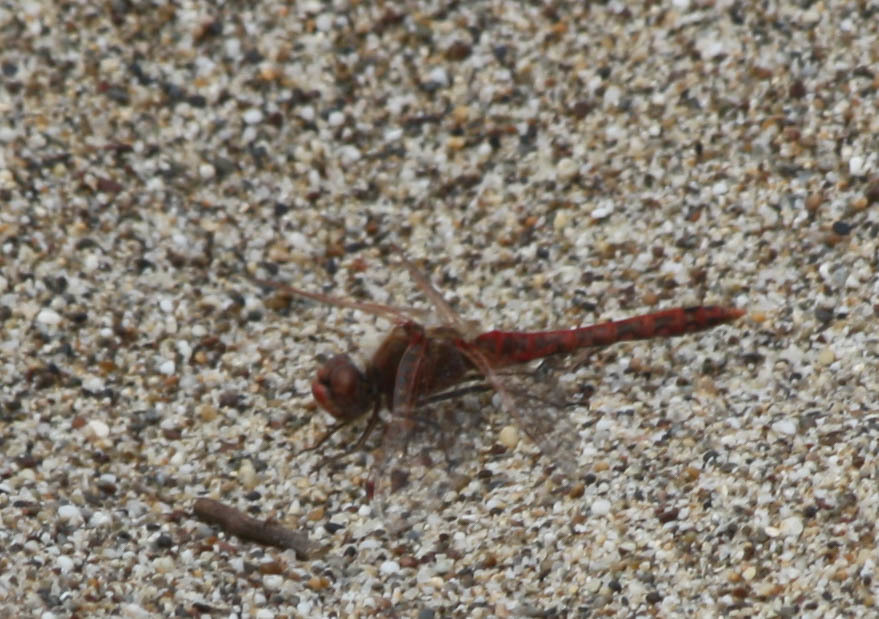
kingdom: Animalia
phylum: Arthropoda
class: Insecta
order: Odonata
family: Libellulidae
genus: Sympetrum
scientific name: Sympetrum corruptum
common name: Variegated meadowhawk
